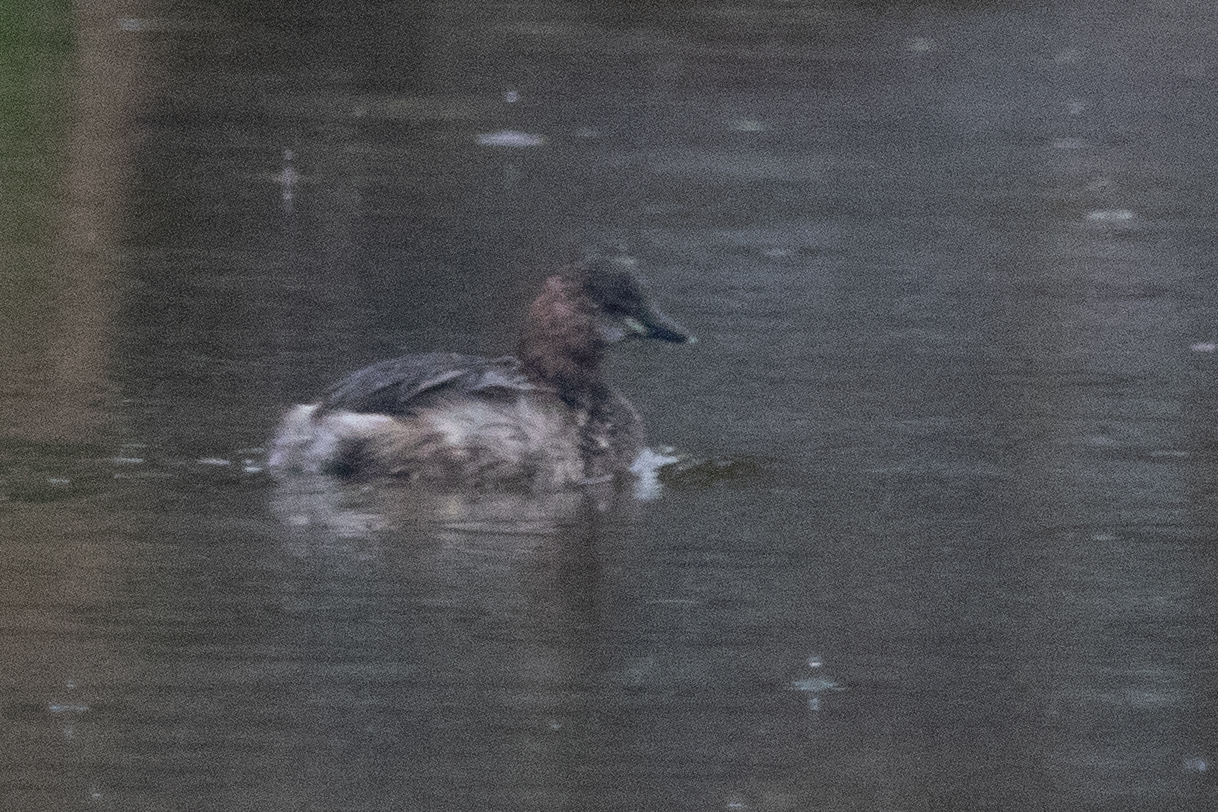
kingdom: Animalia
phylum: Chordata
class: Aves
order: Podicipediformes
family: Podicipedidae
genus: Tachybaptus
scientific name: Tachybaptus ruficollis
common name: Little grebe
